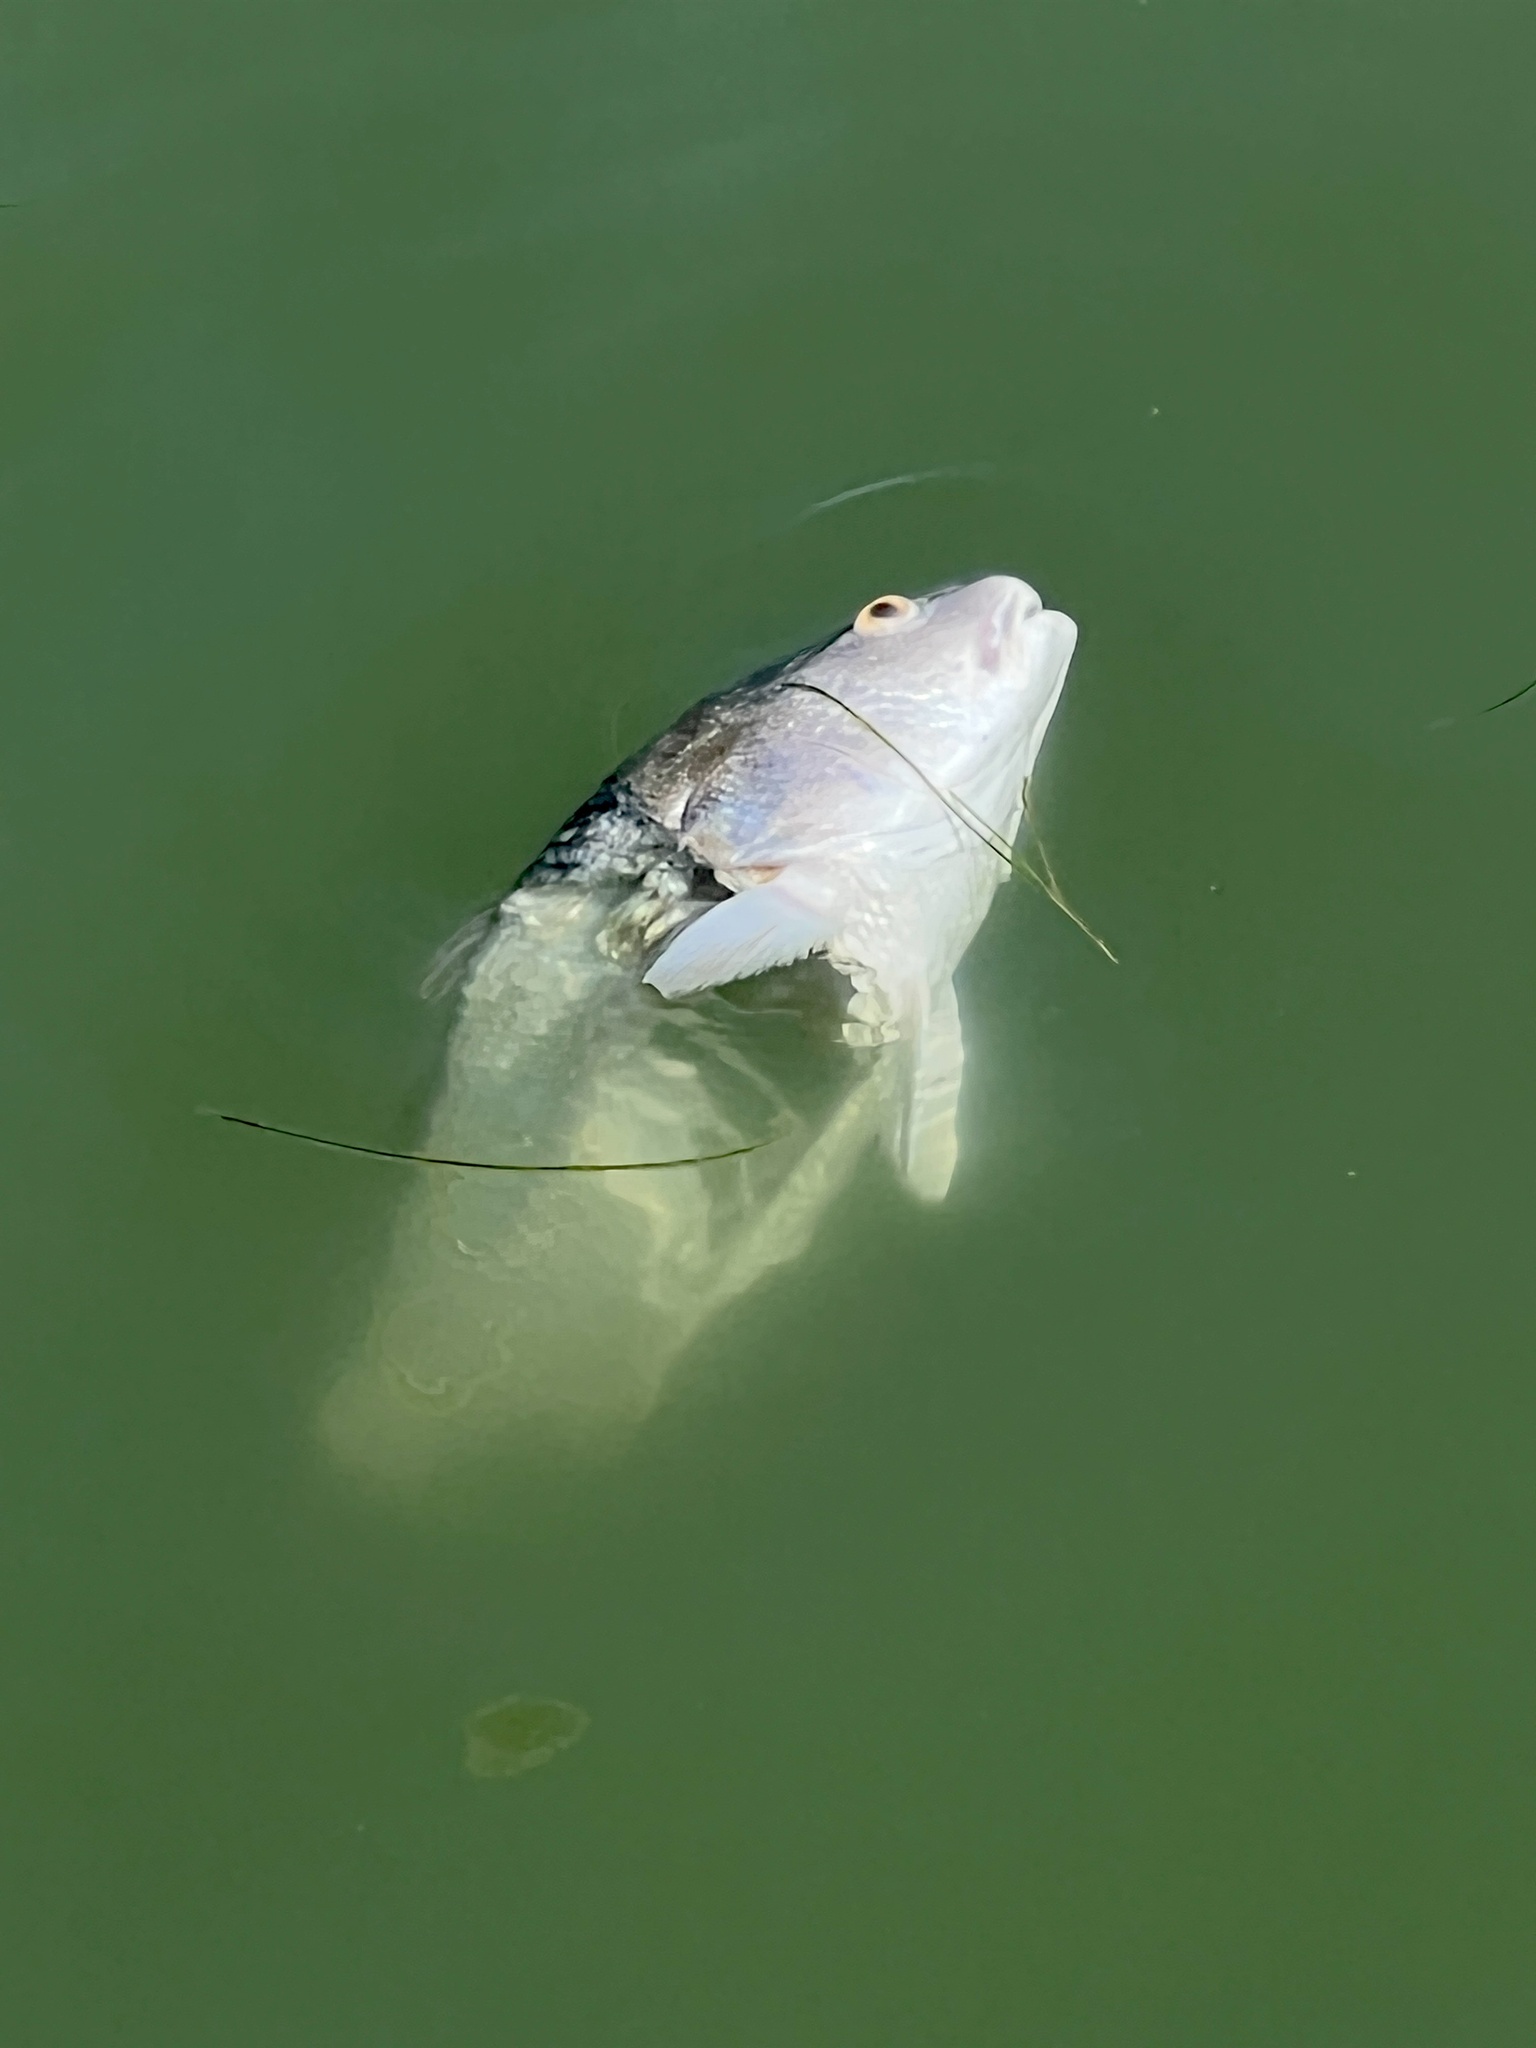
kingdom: Animalia
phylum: Chordata
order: Perciformes
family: Sciaenidae
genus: Sciaenops
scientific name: Sciaenops ocellatus
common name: Red drum
